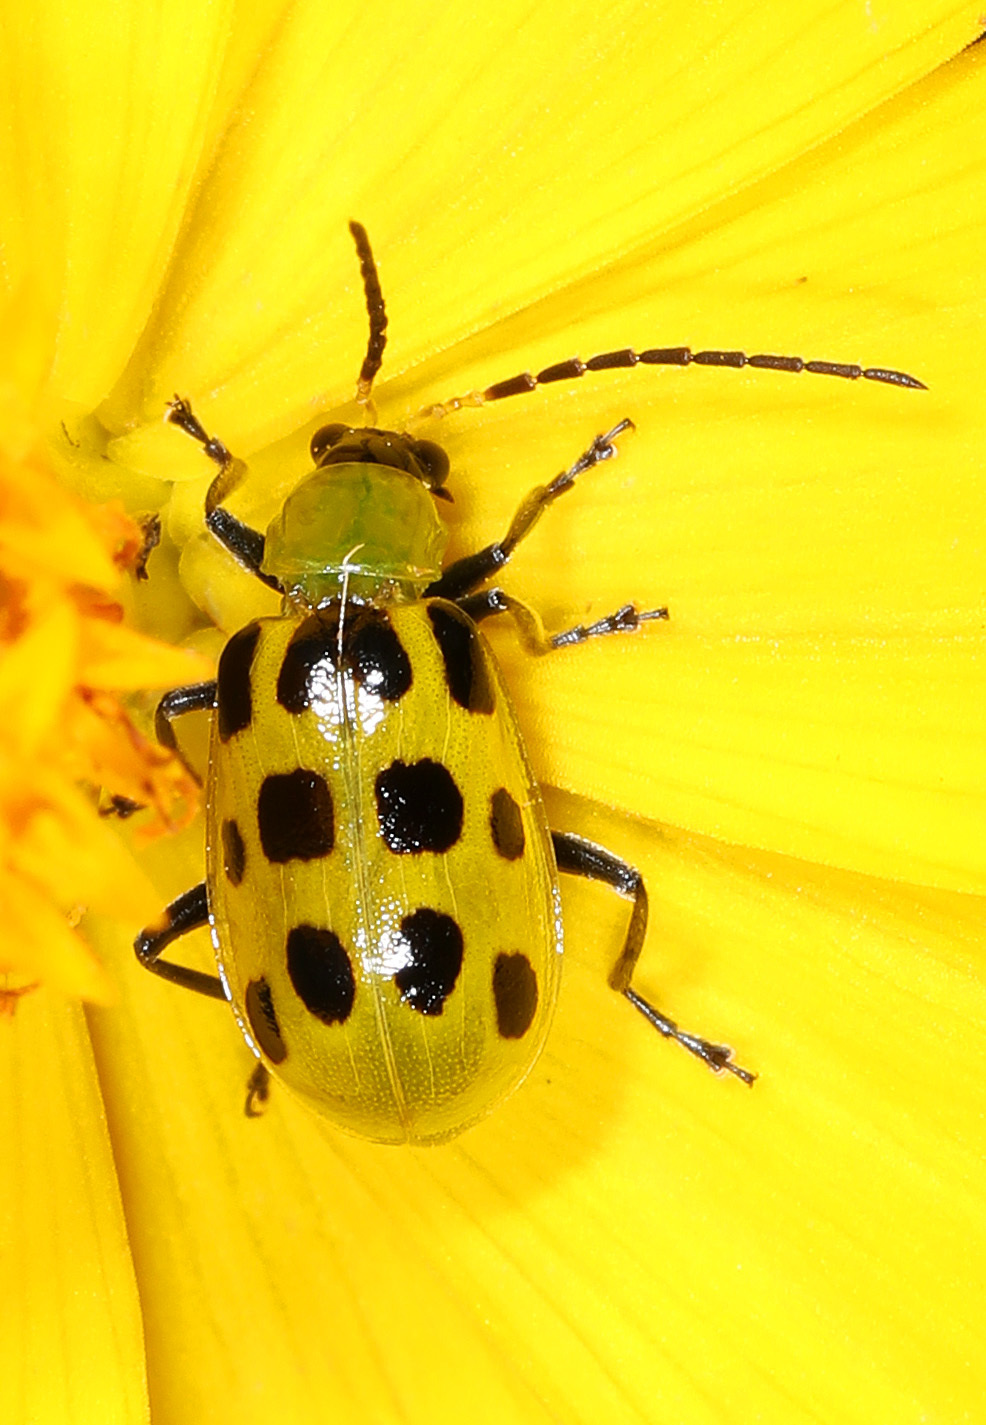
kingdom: Animalia
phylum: Arthropoda
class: Insecta
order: Coleoptera
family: Chrysomelidae
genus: Diabrotica
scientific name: Diabrotica undecimpunctata
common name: Spotted cucumber beetle
